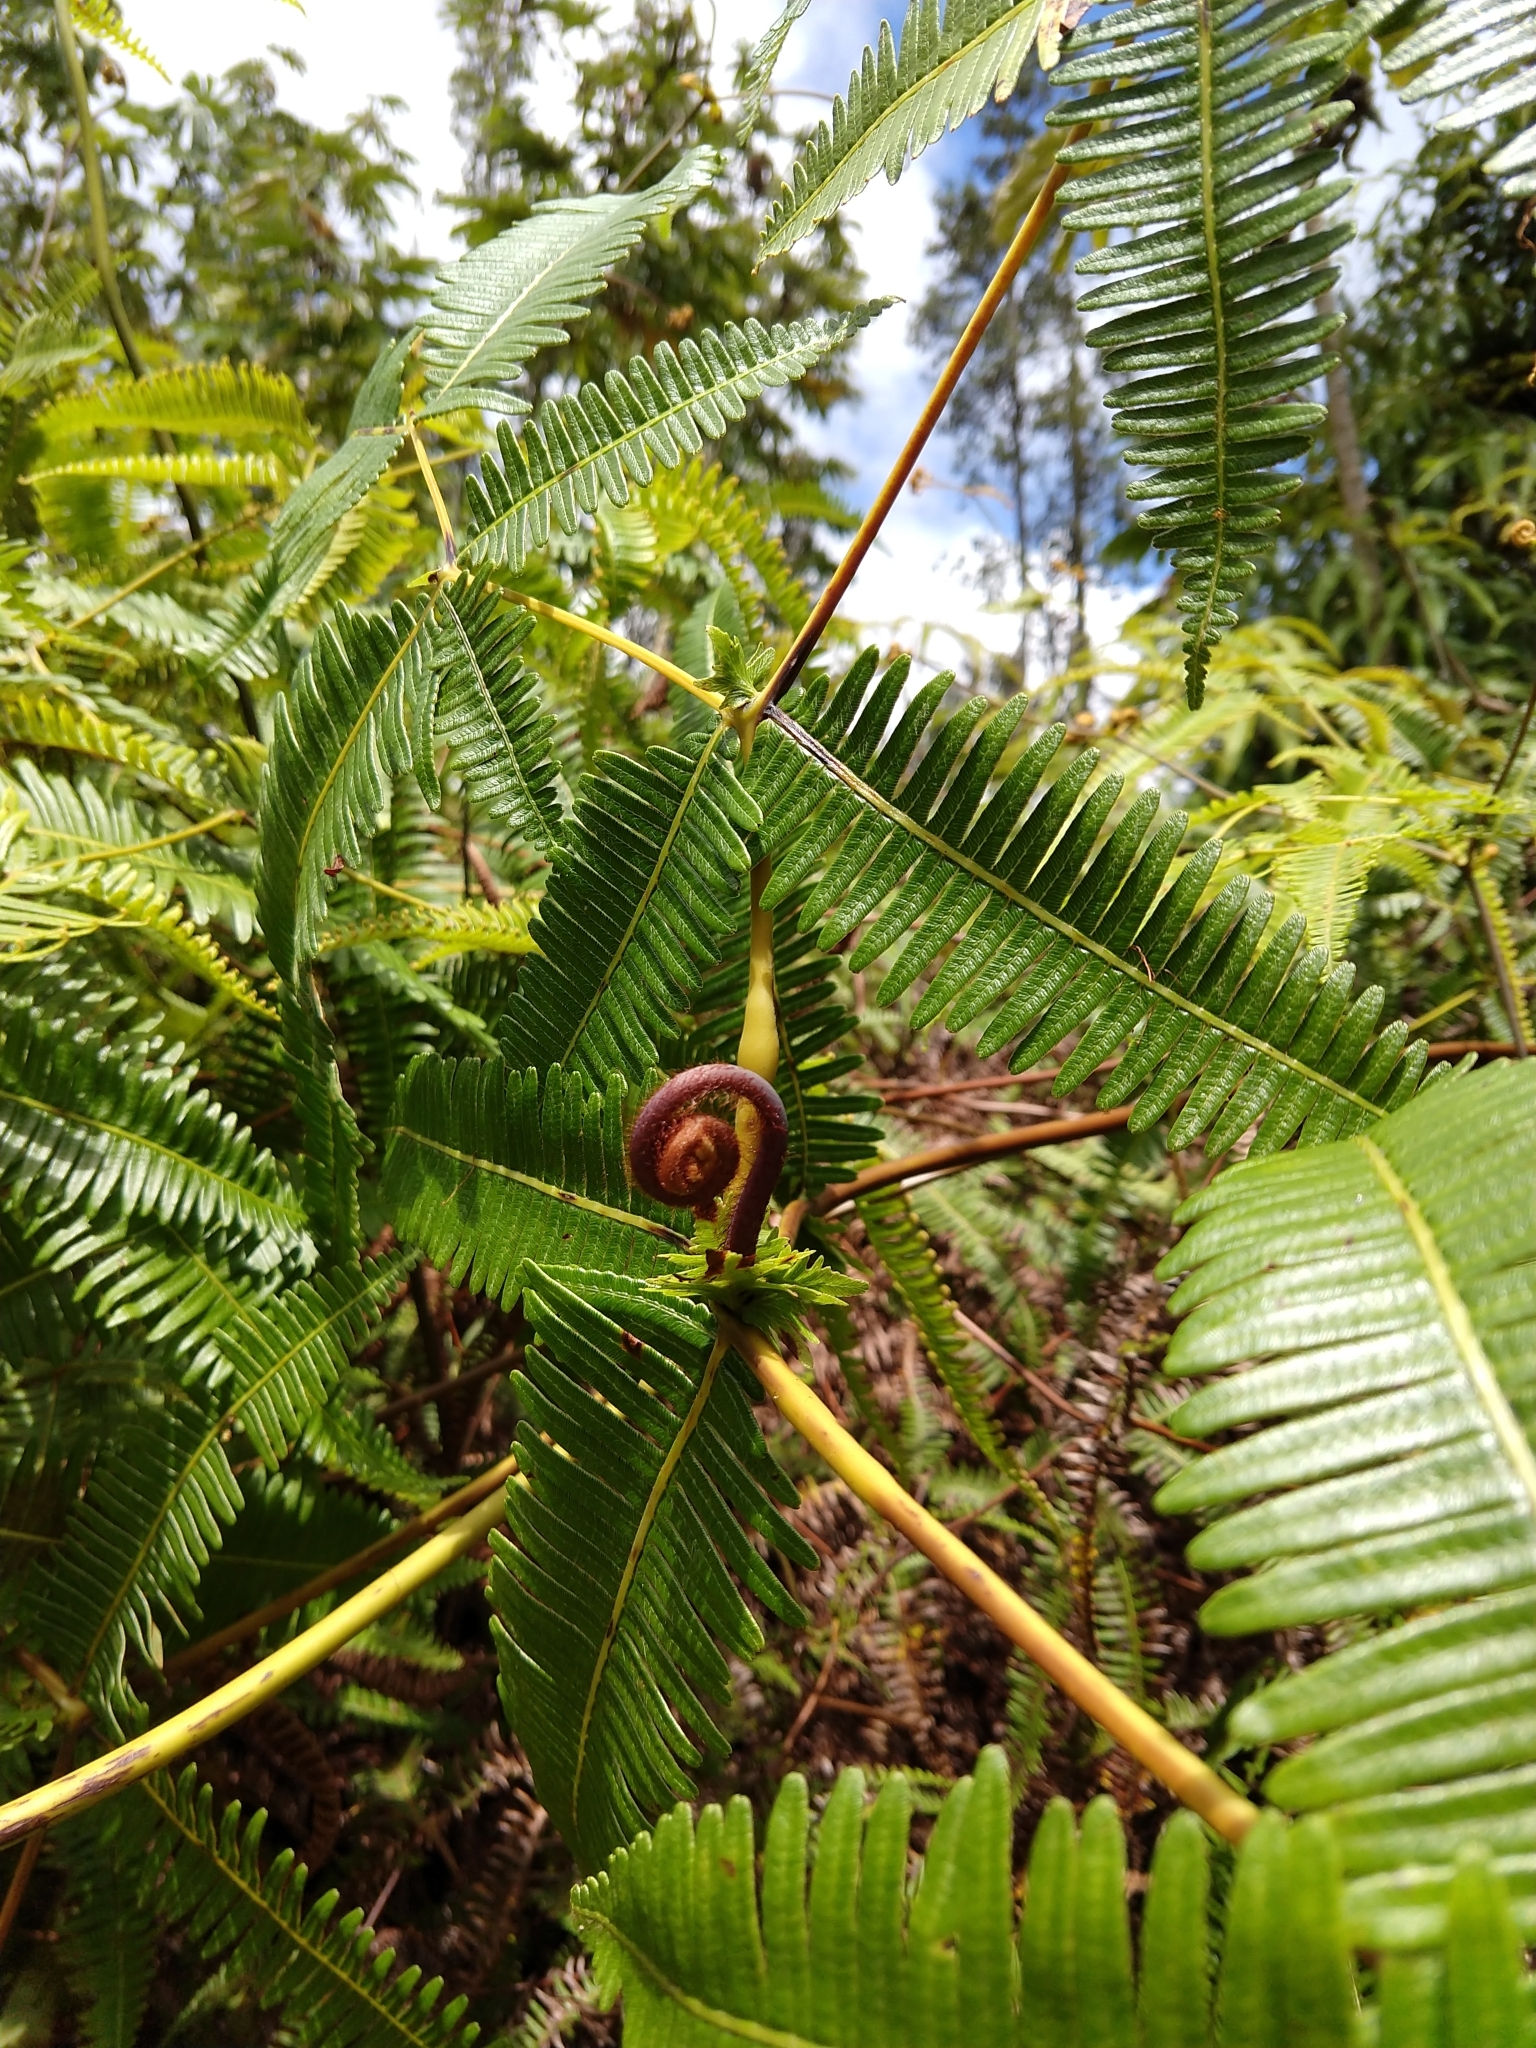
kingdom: Plantae
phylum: Tracheophyta
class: Polypodiopsida
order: Gleicheniales
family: Gleicheniaceae
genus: Dicranopteris
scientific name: Dicranopteris linearis
